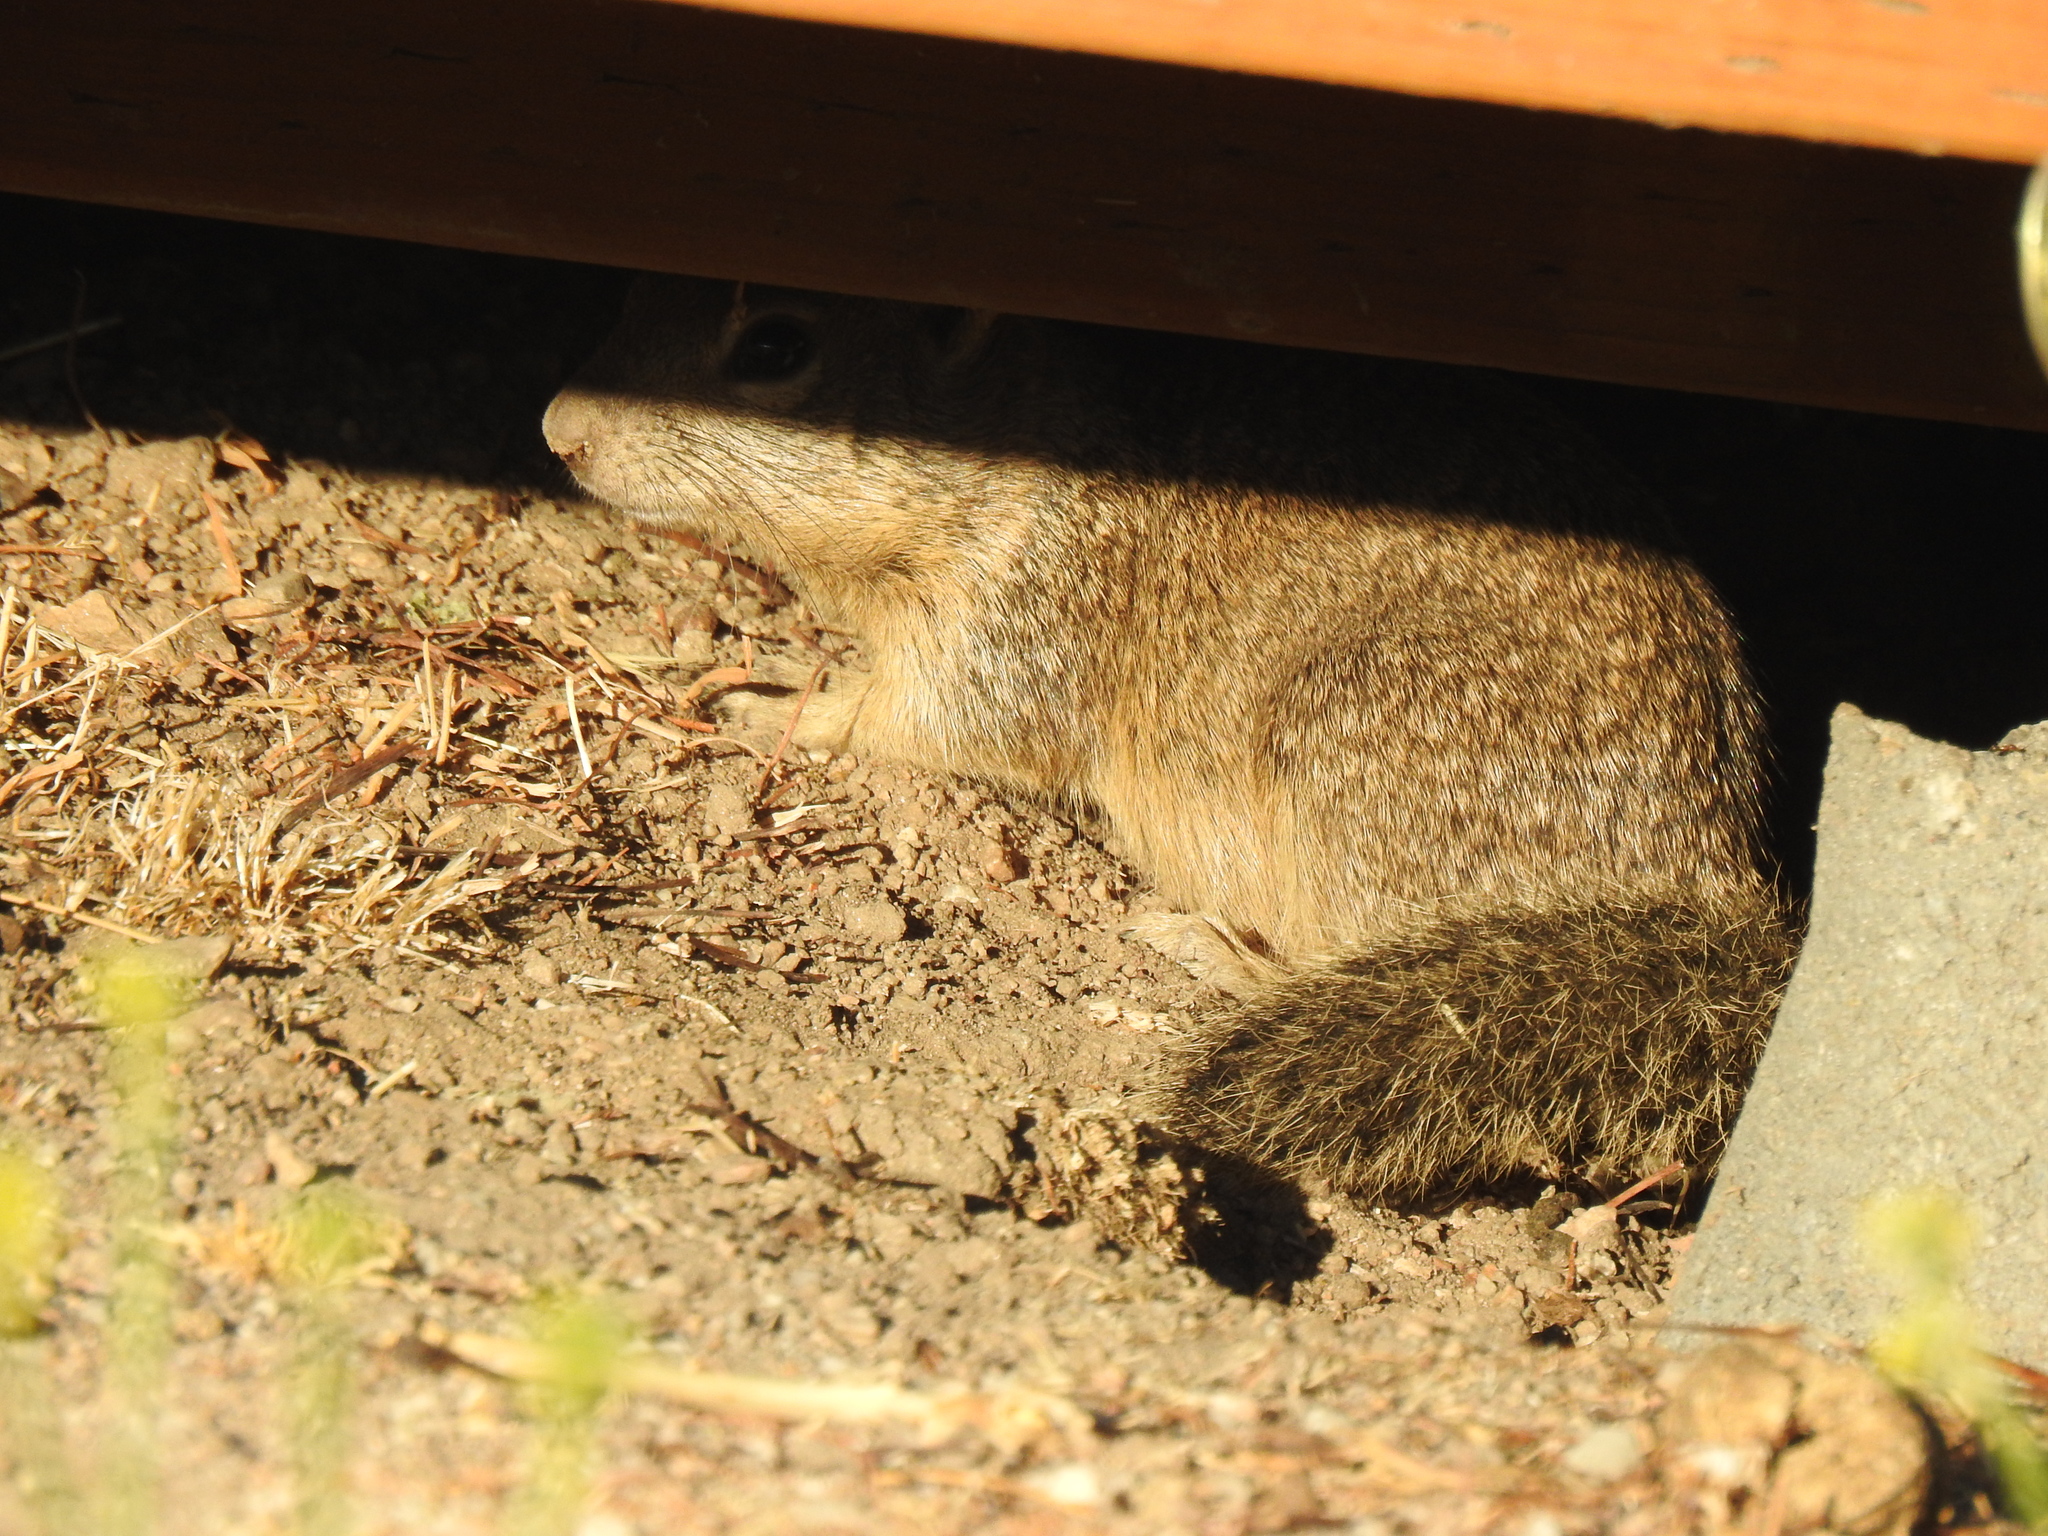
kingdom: Animalia
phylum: Chordata
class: Mammalia
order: Rodentia
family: Sciuridae
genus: Otospermophilus
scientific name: Otospermophilus beecheyi
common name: California ground squirrel
